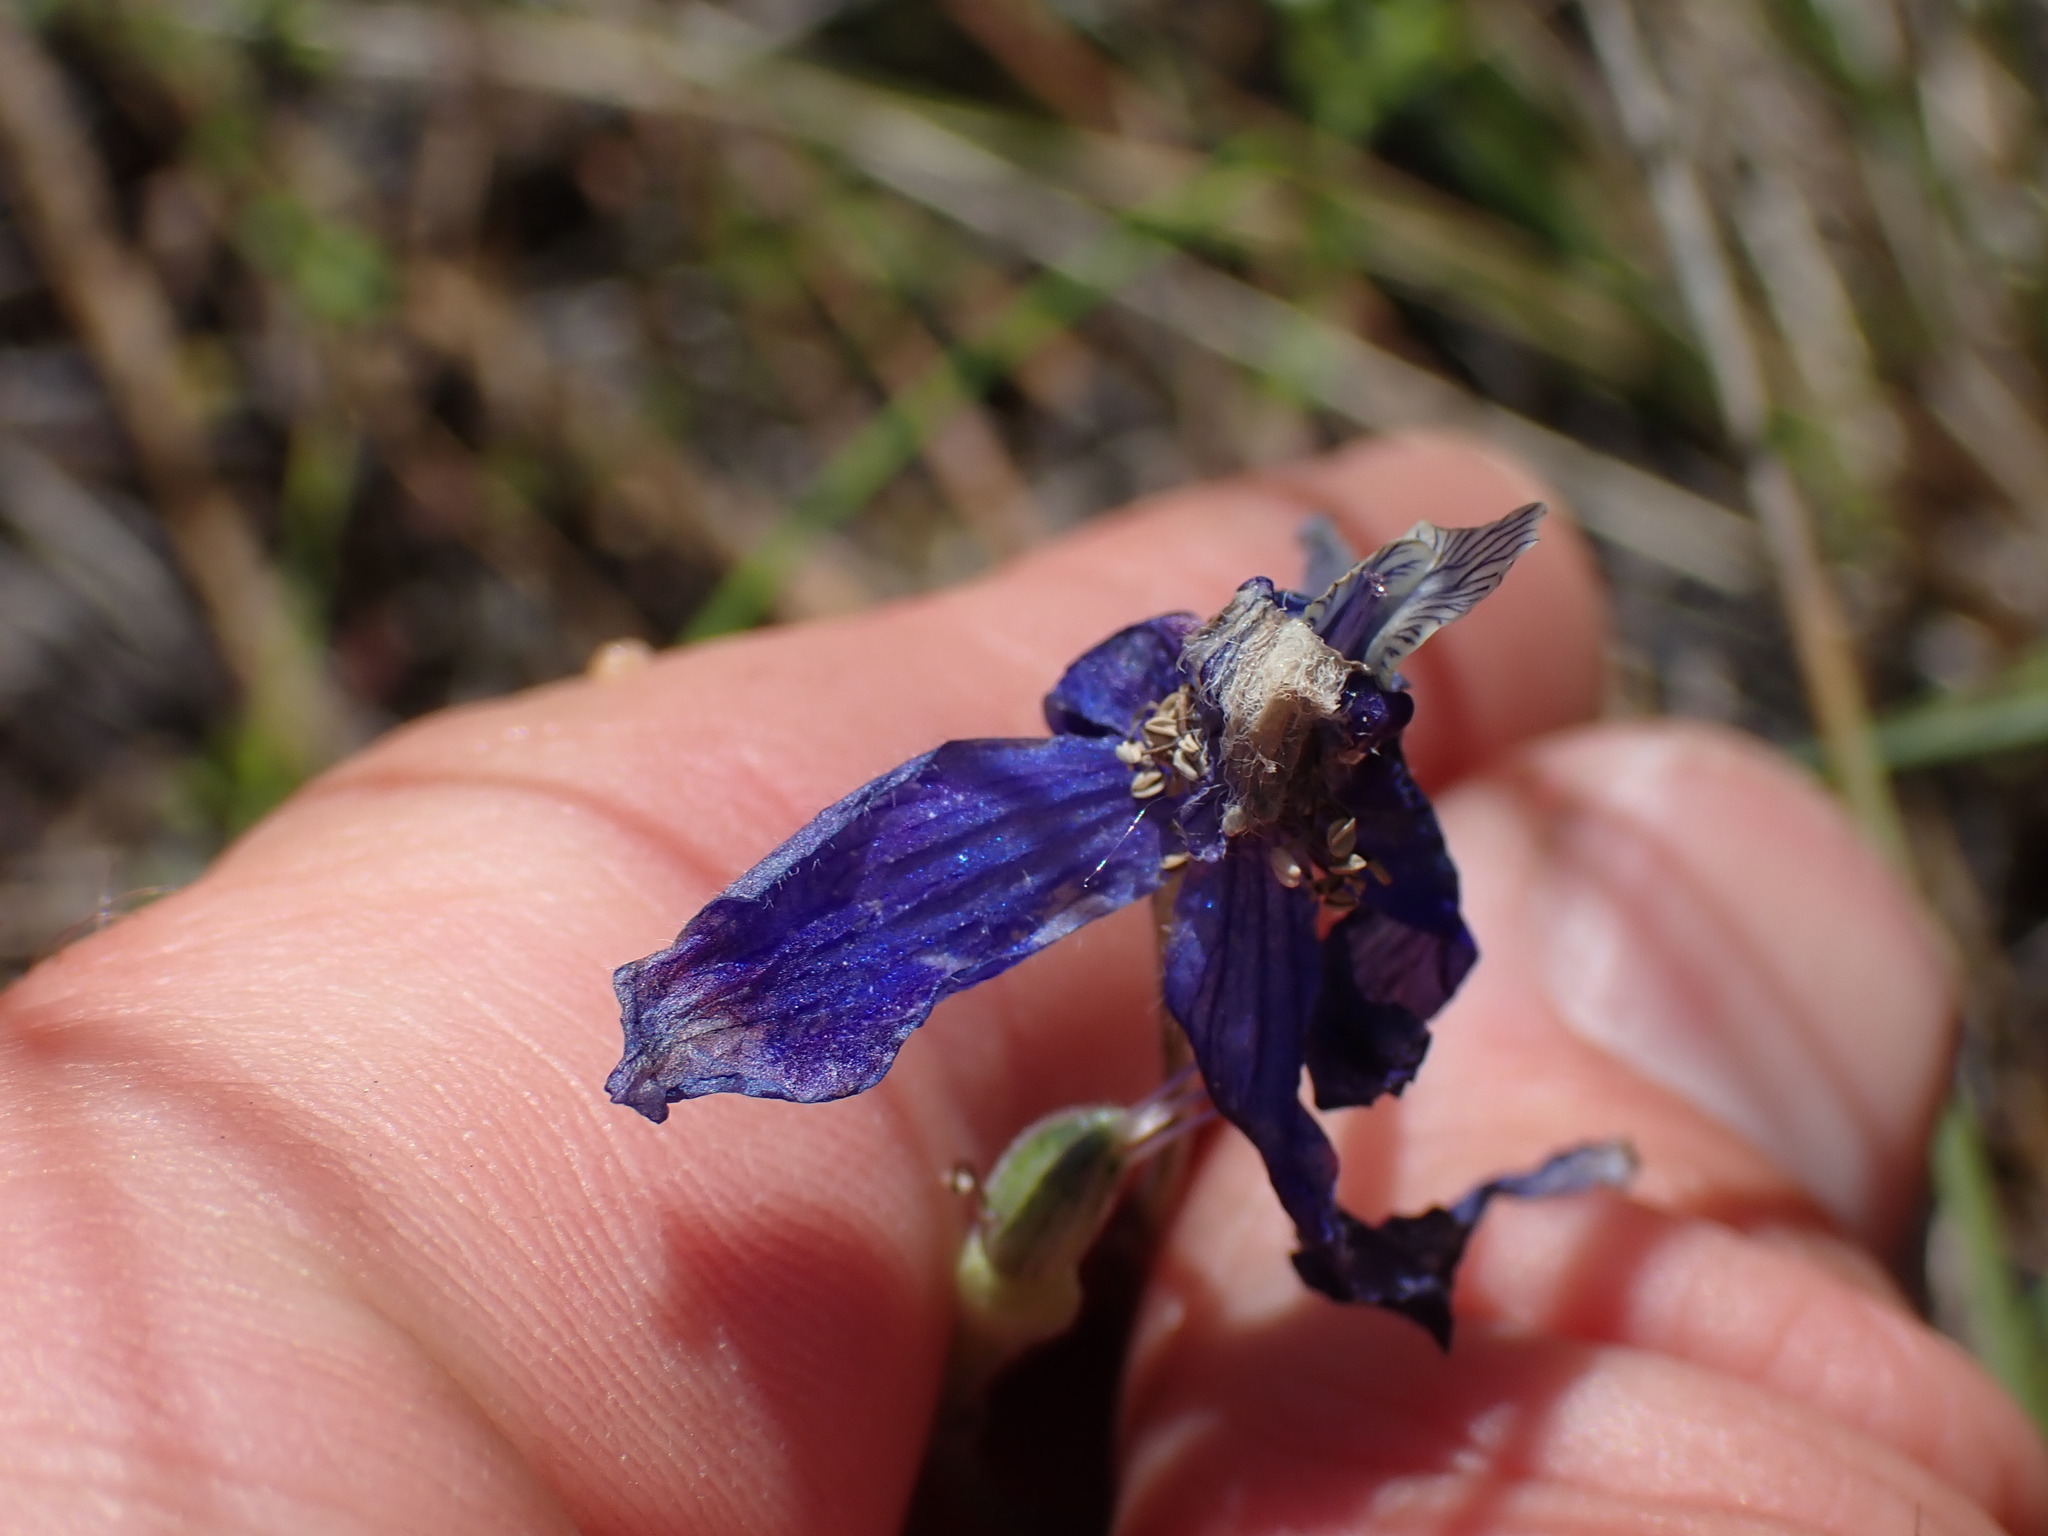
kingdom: Plantae
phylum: Tracheophyta
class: Magnoliopsida
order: Ranunculales
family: Ranunculaceae
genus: Delphinium
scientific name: Delphinium nuttallianum
